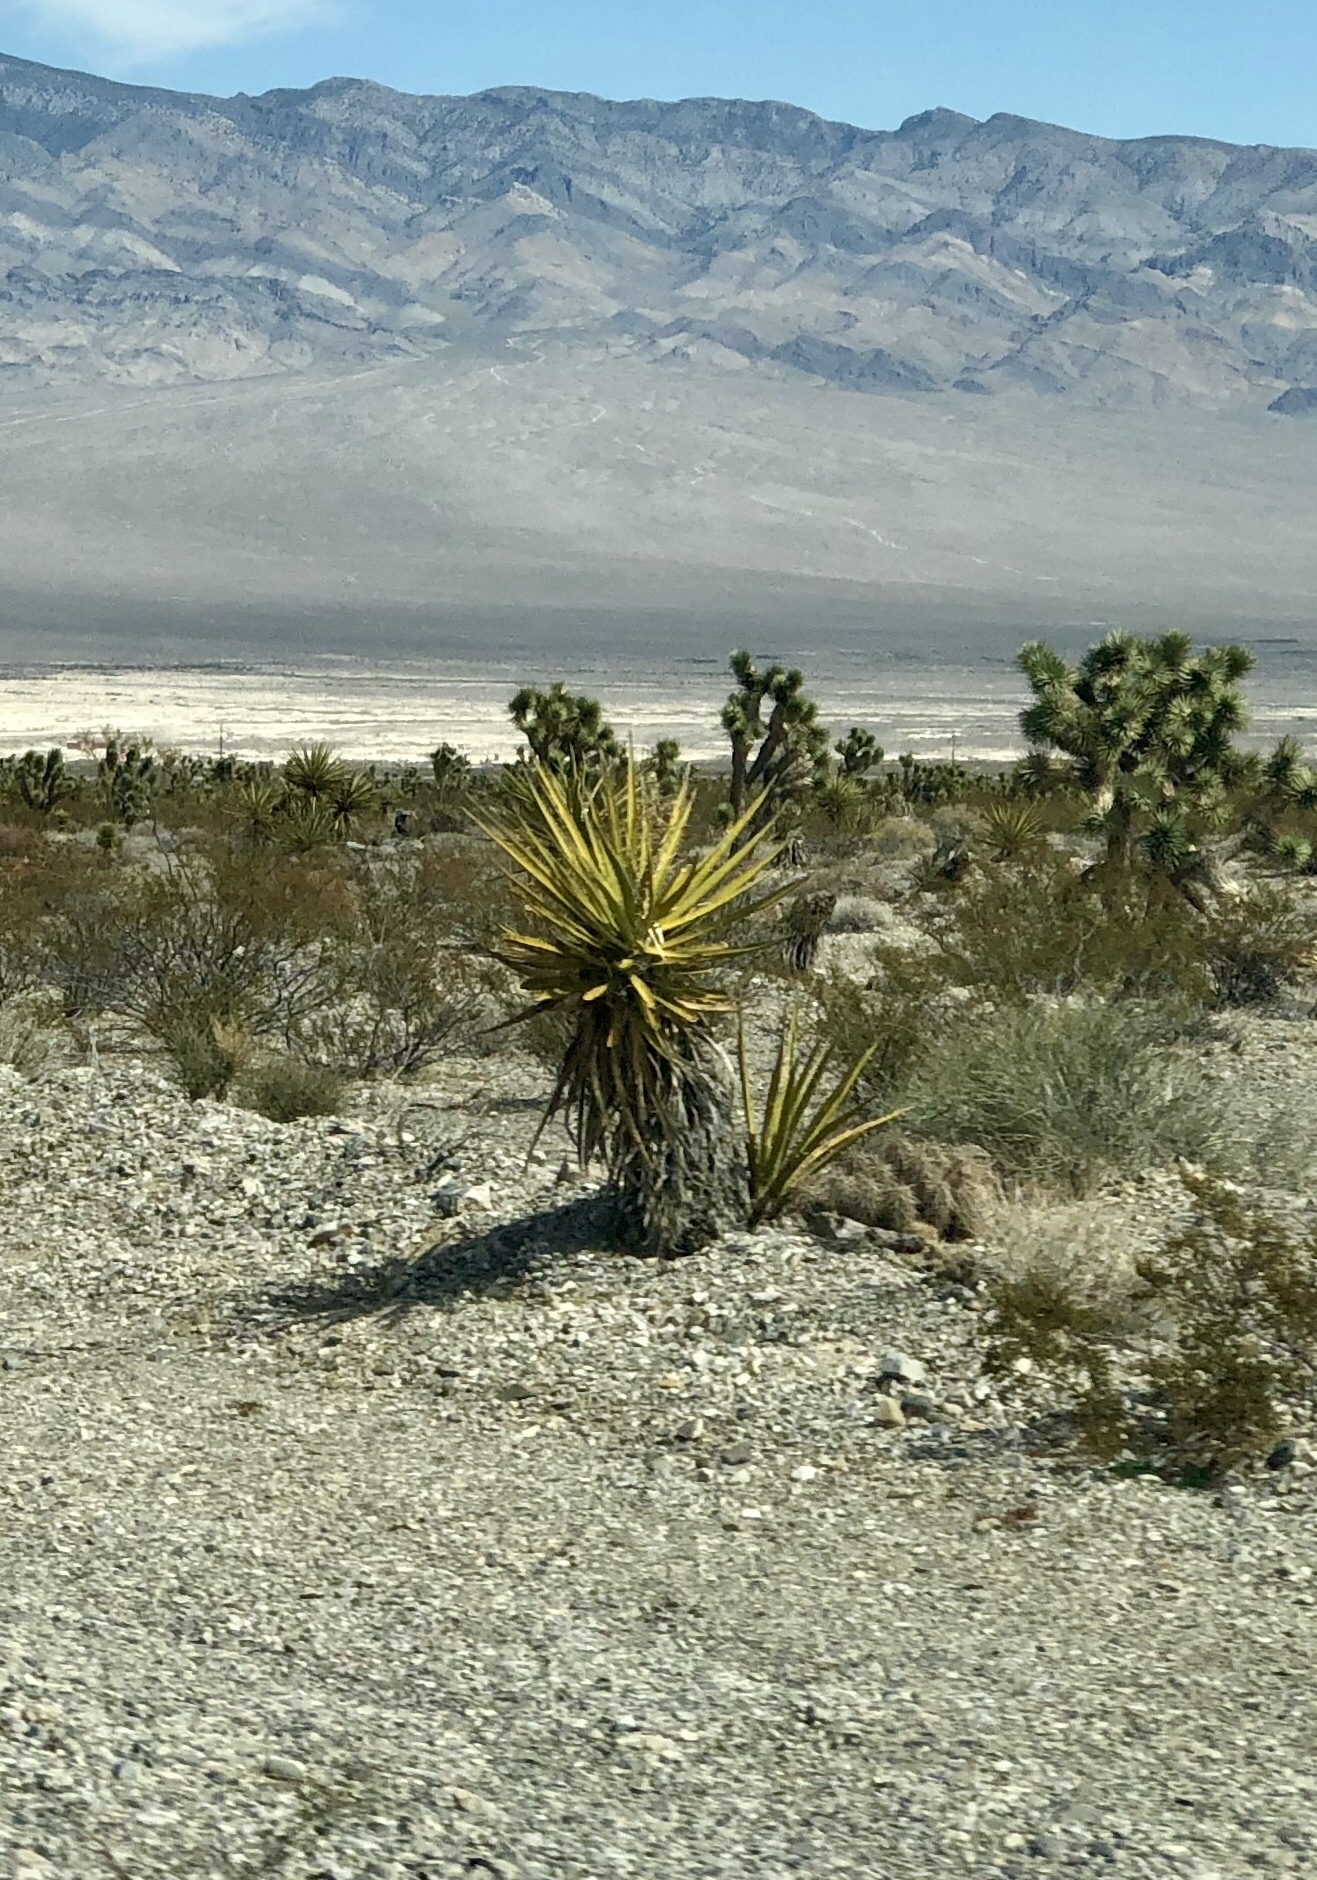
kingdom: Plantae
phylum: Tracheophyta
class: Liliopsida
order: Asparagales
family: Asparagaceae
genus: Yucca
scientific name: Yucca schidigera
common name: Mojave yucca
